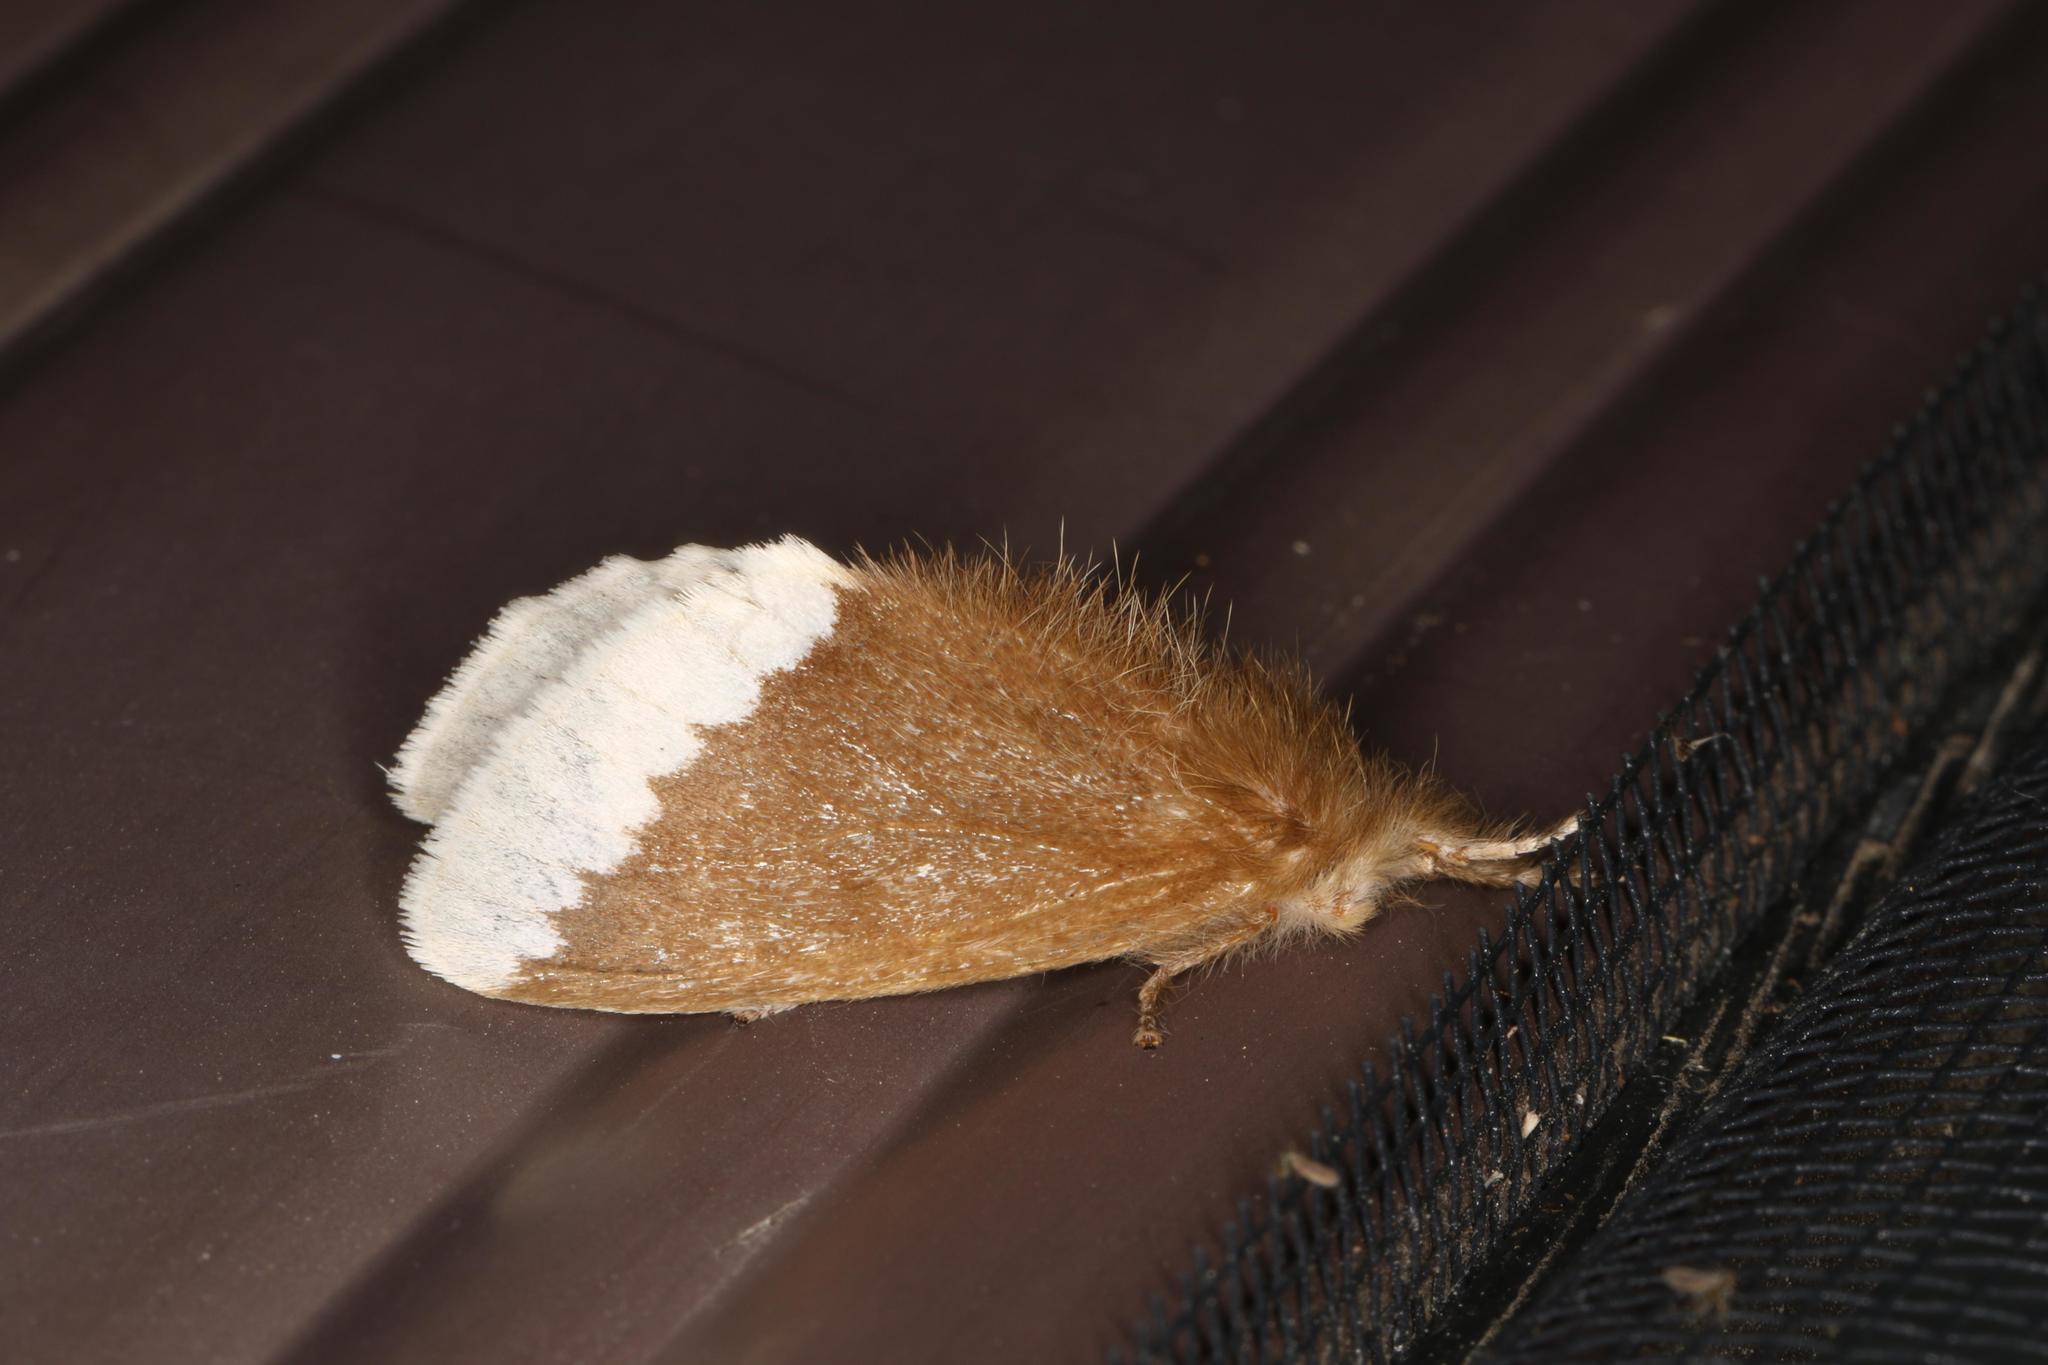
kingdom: Animalia
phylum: Arthropoda
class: Insecta
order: Lepidoptera
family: Erebidae
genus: Euproctis
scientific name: Euproctis
